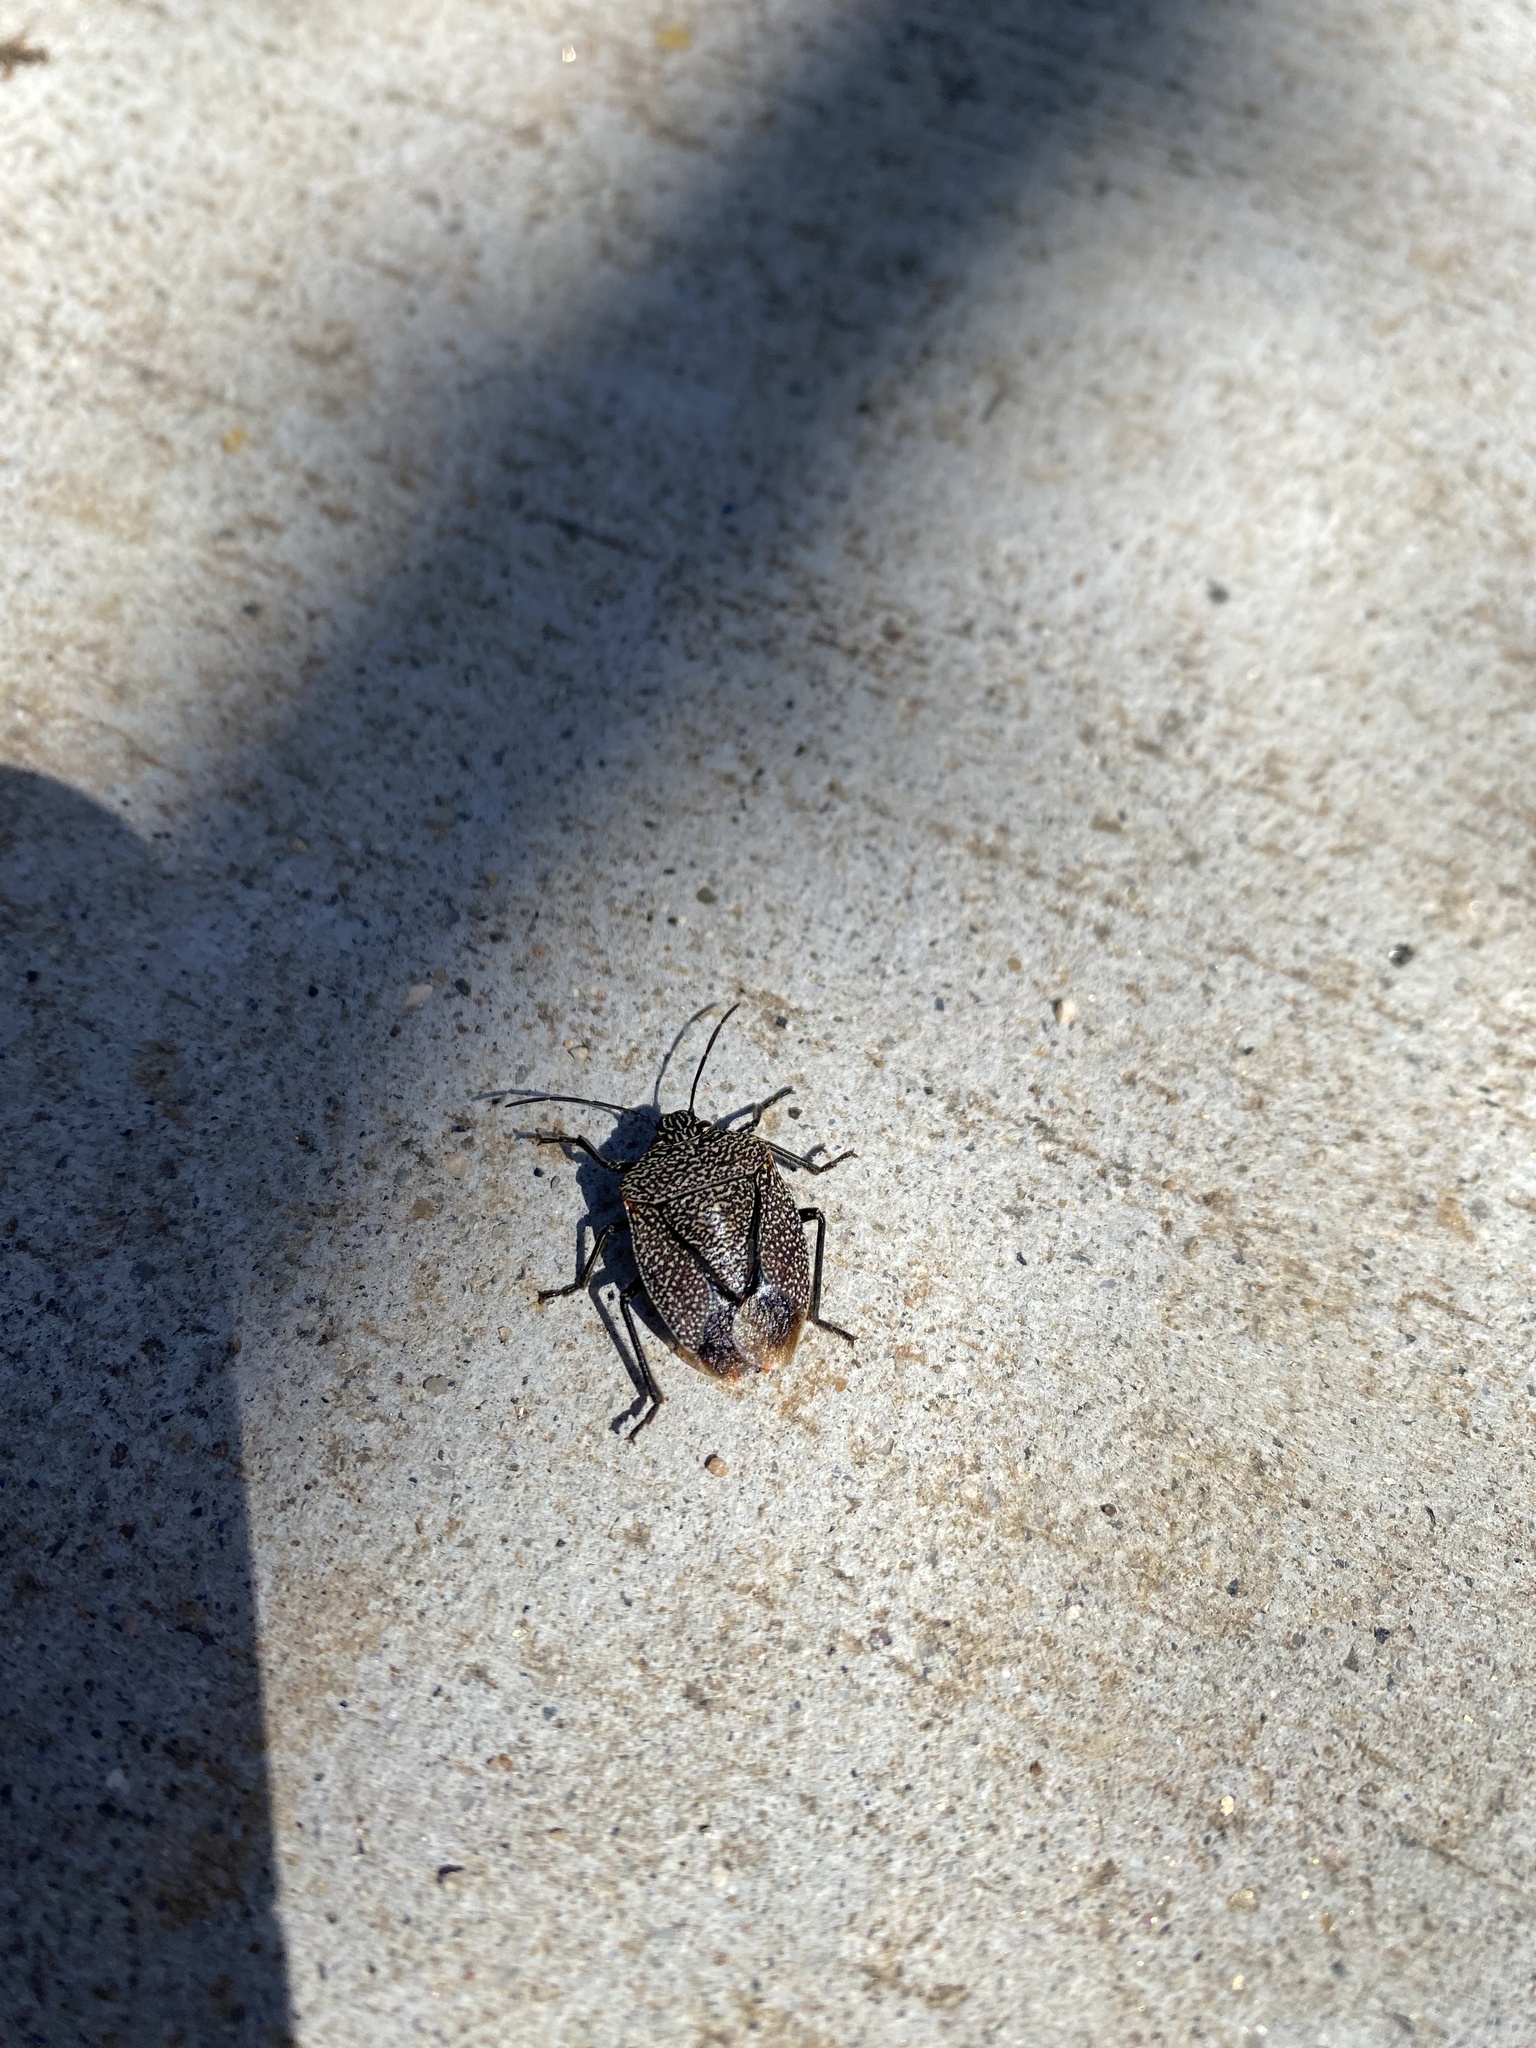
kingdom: Animalia
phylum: Arthropoda
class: Insecta
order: Hemiptera
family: Pentatomidae
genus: Pellaea
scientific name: Pellaea stictica
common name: Stink bug
